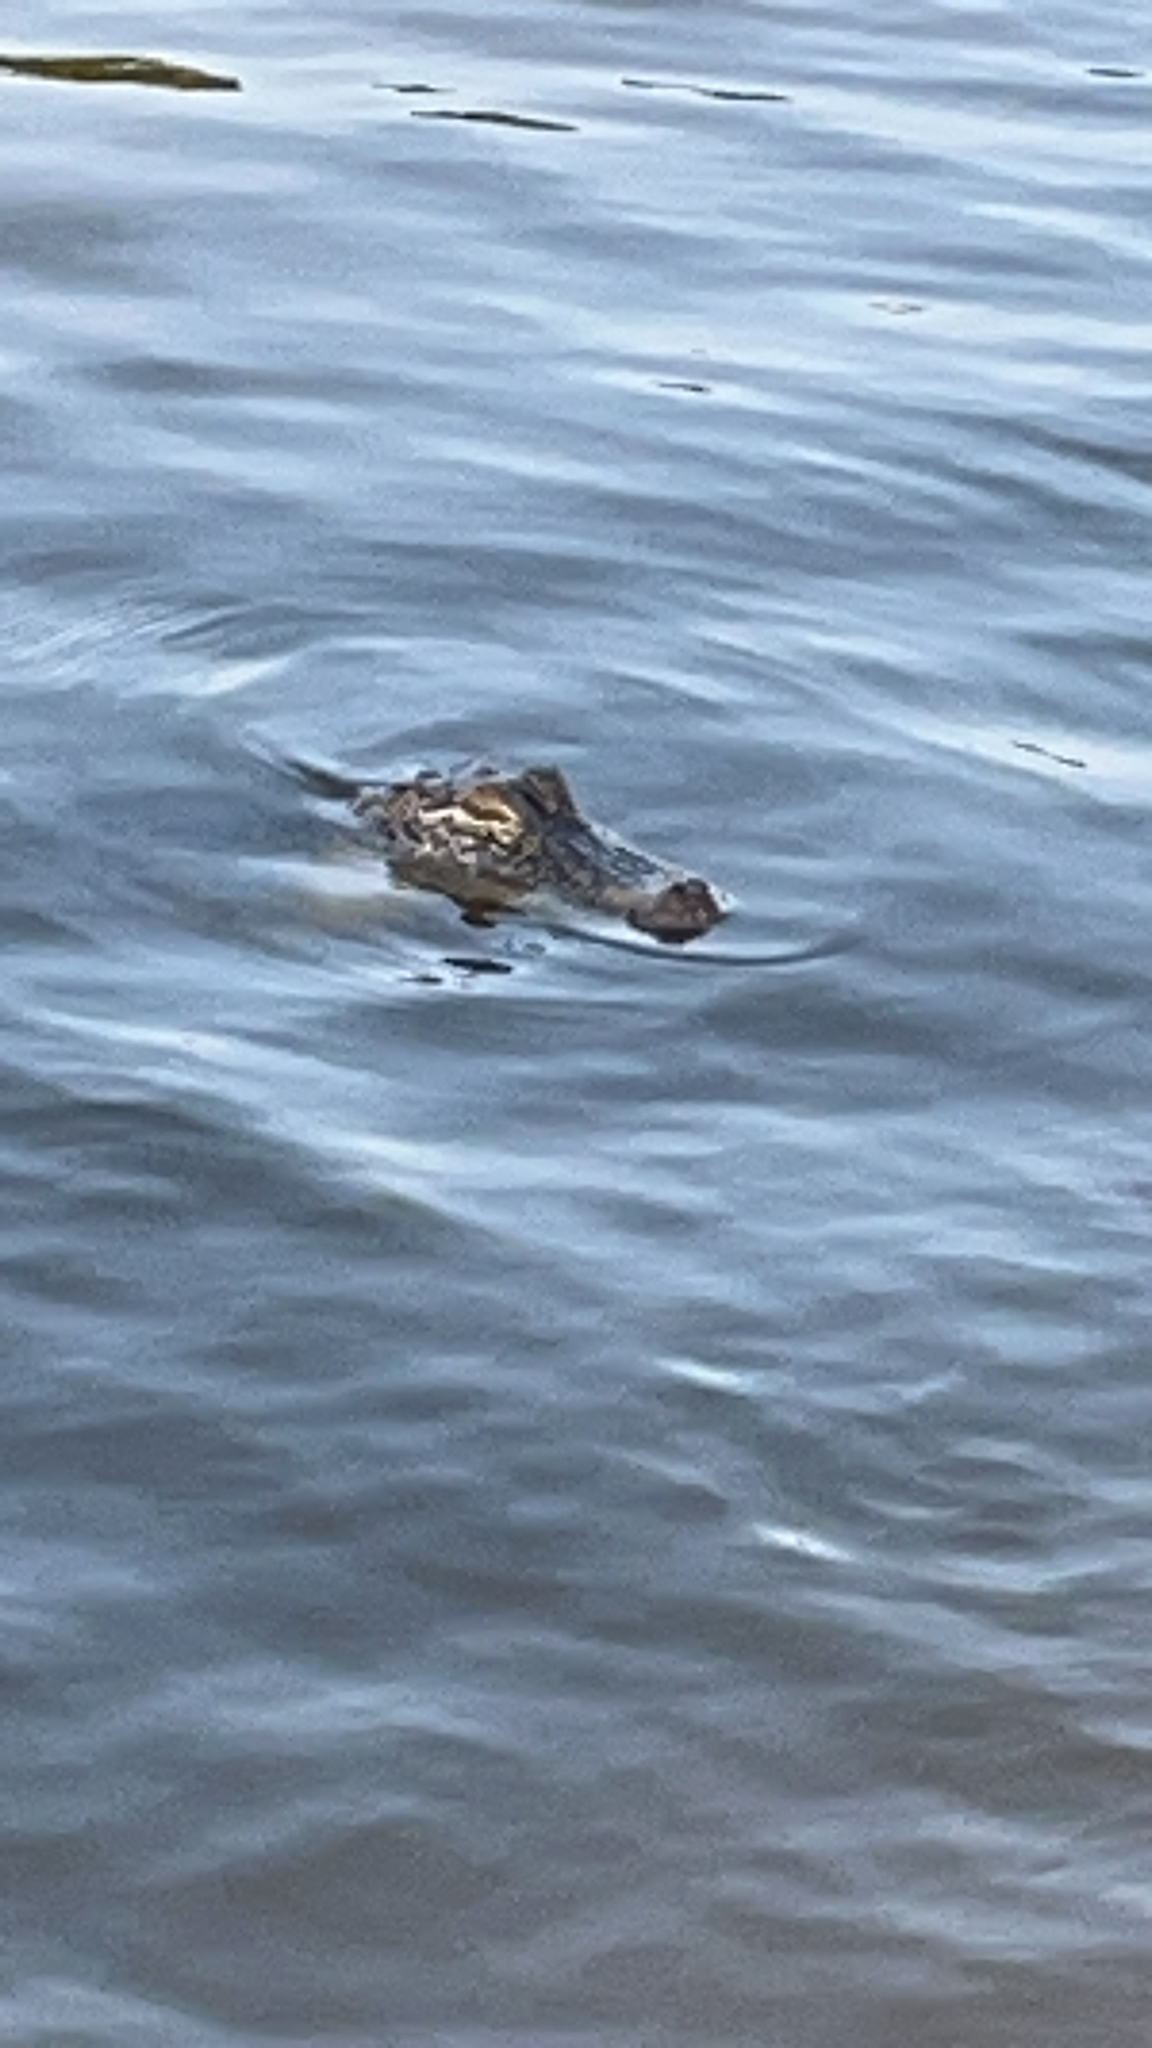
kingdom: Animalia
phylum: Chordata
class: Crocodylia
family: Alligatoridae
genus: Alligator
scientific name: Alligator mississippiensis
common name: American alligator
